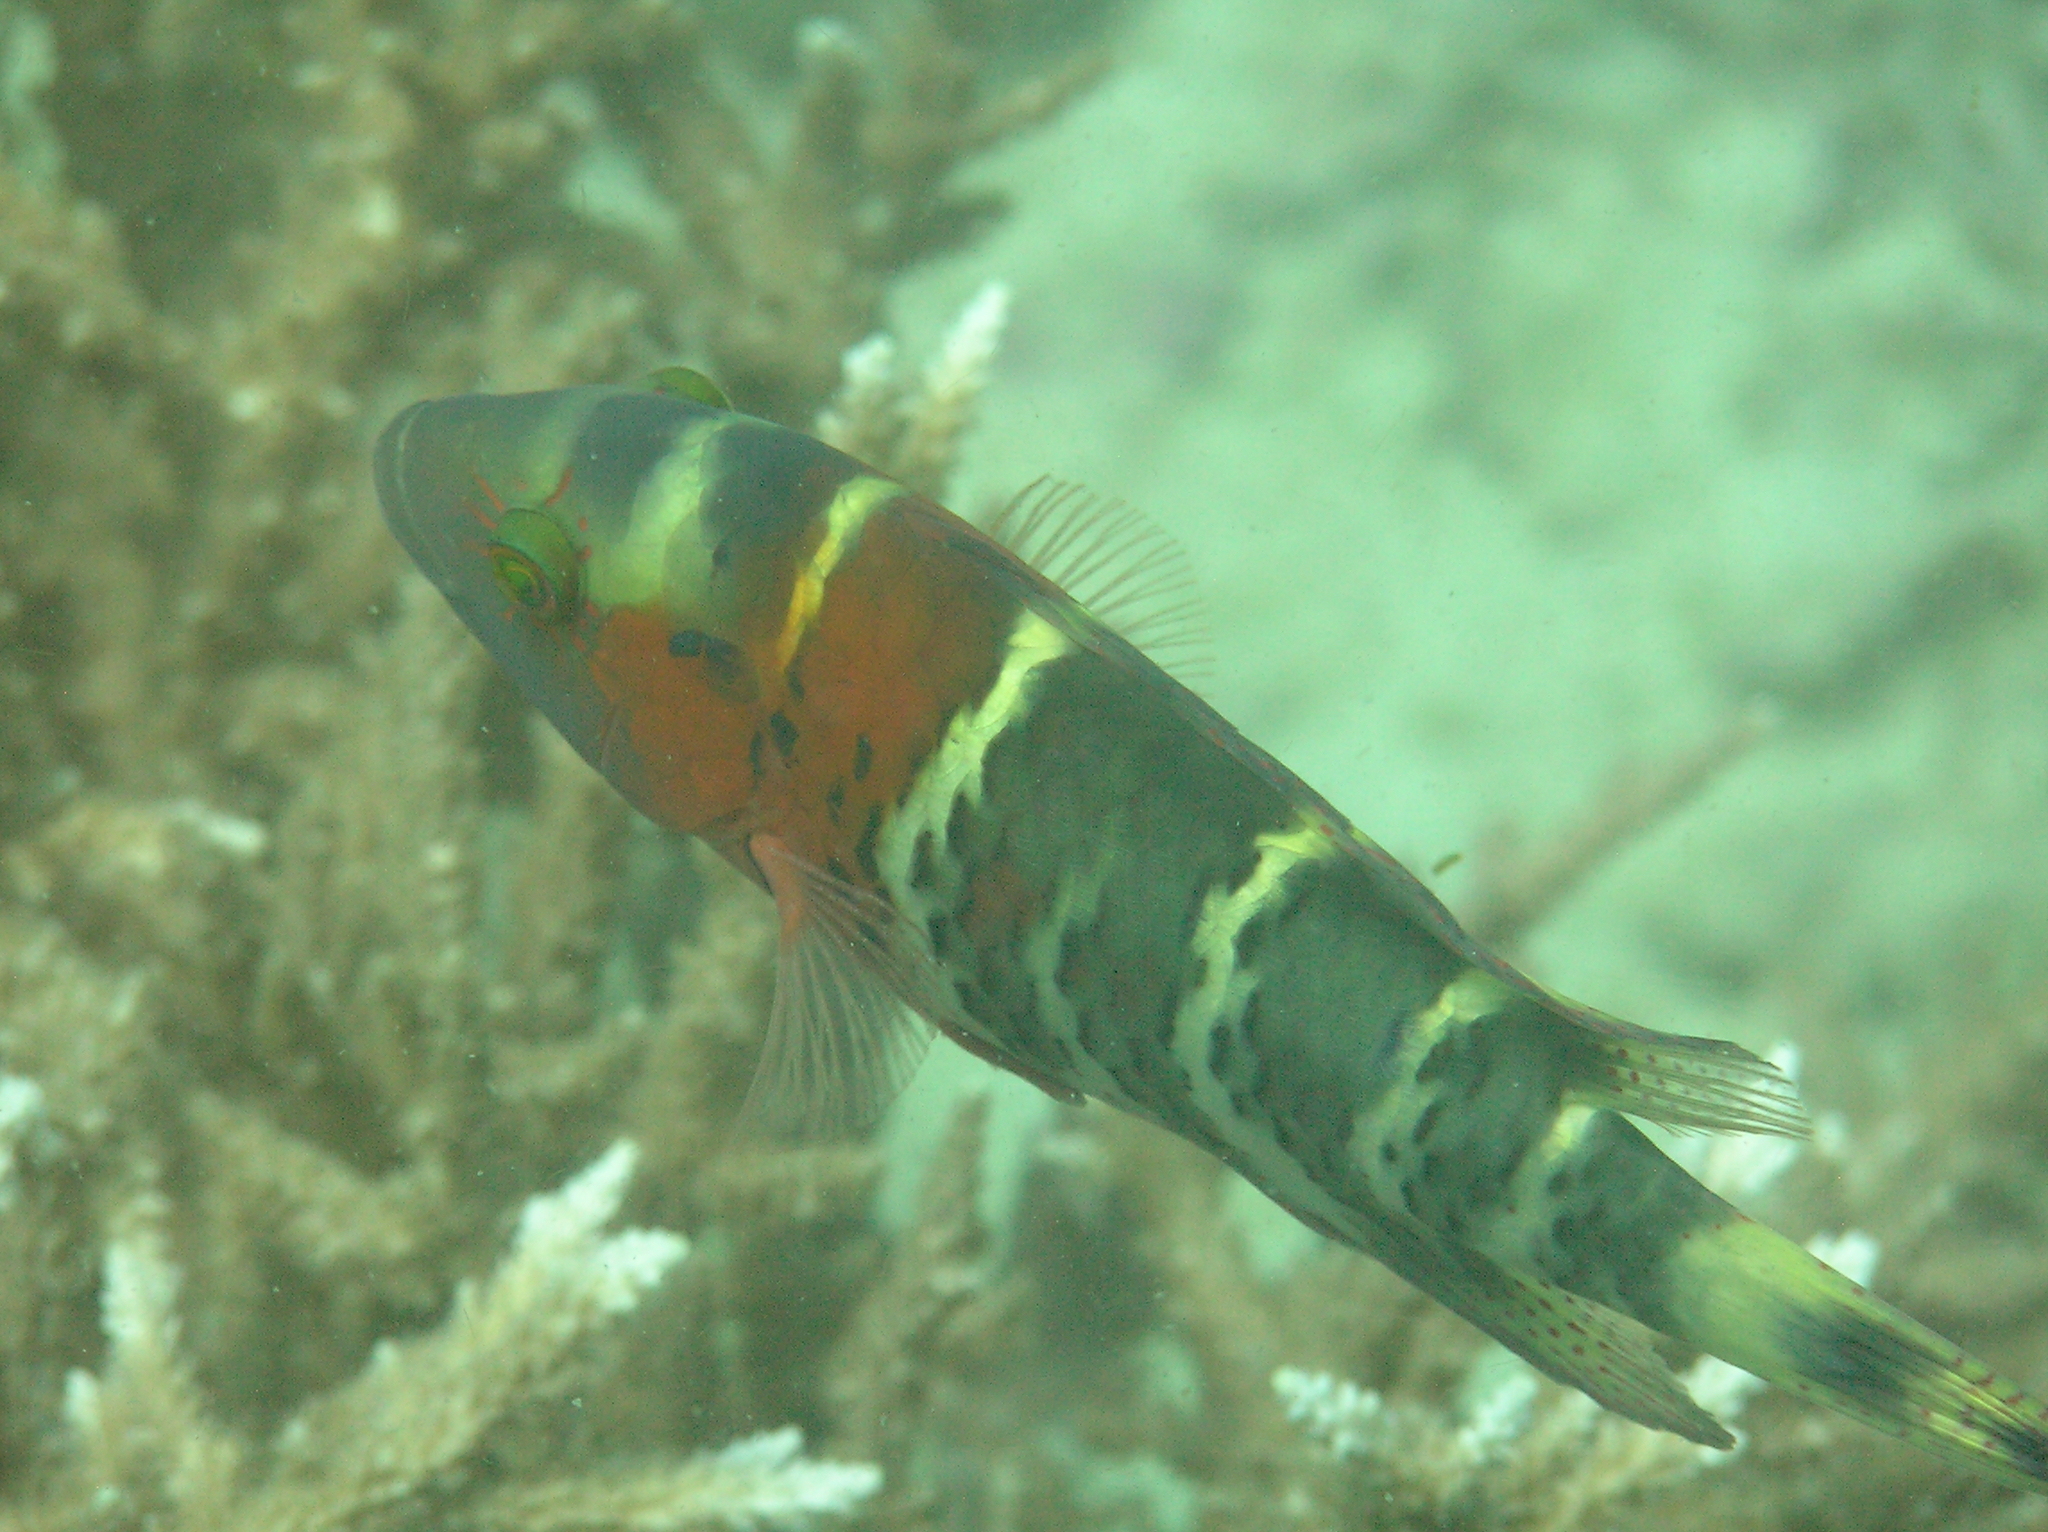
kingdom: Animalia
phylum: Chordata
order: Perciformes
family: Labridae
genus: Cheilinus
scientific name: Cheilinus fasciatus
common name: Red-breasted wrasse
